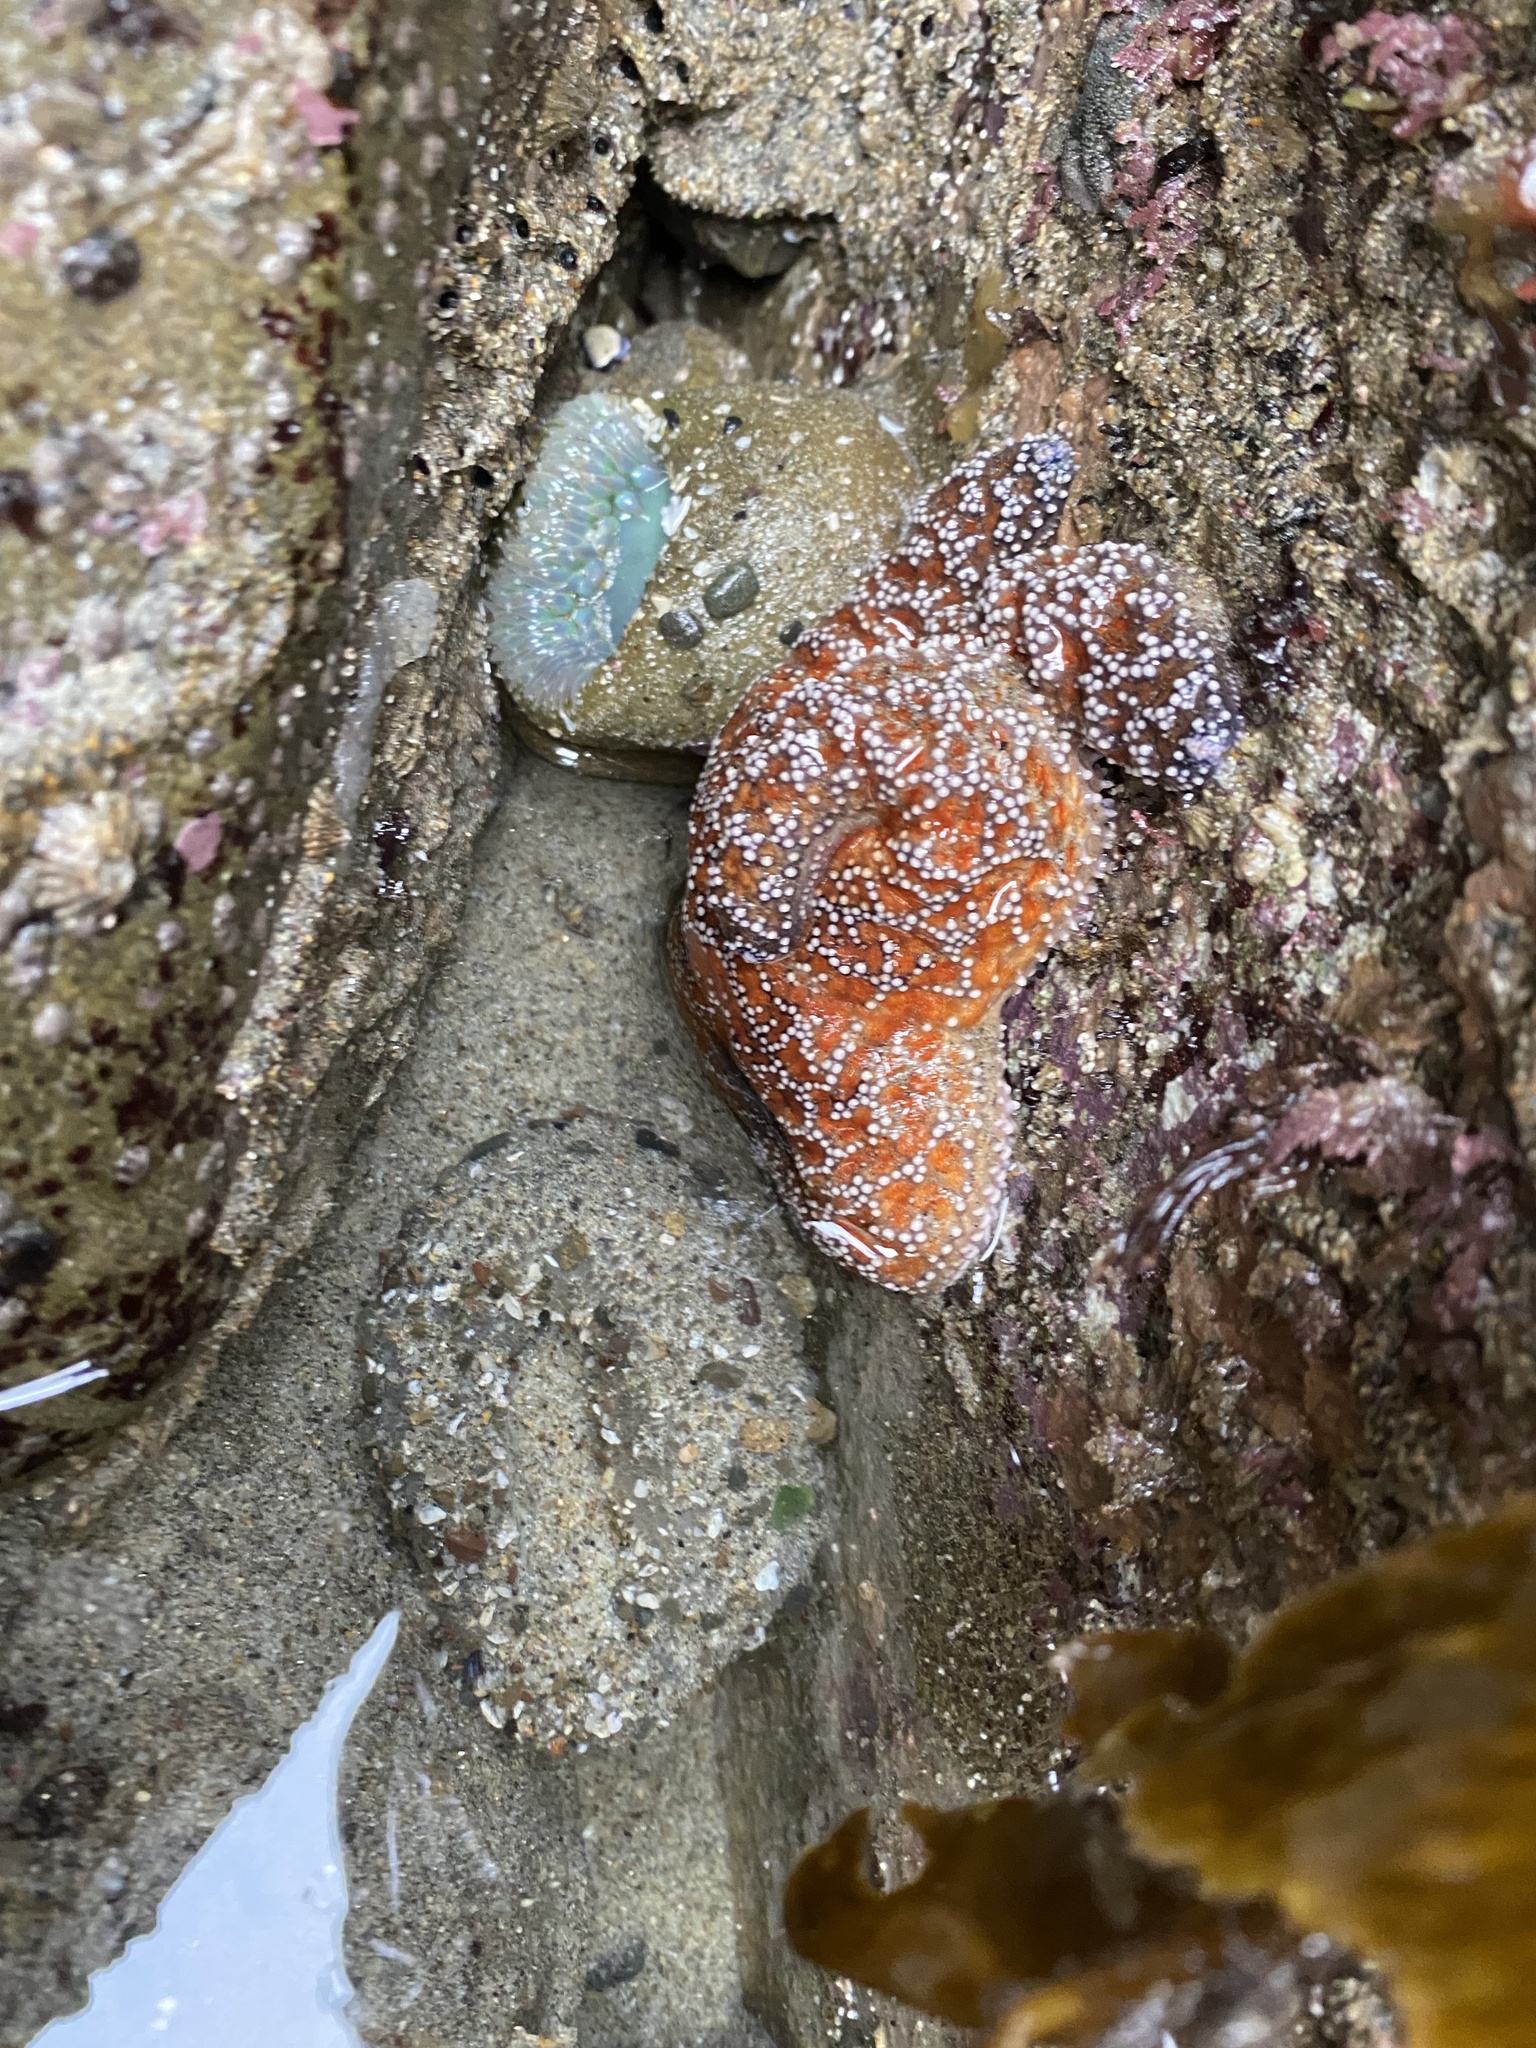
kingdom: Animalia
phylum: Echinodermata
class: Asteroidea
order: Forcipulatida
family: Asteriidae
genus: Pisaster
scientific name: Pisaster ochraceus
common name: Ochre stars
